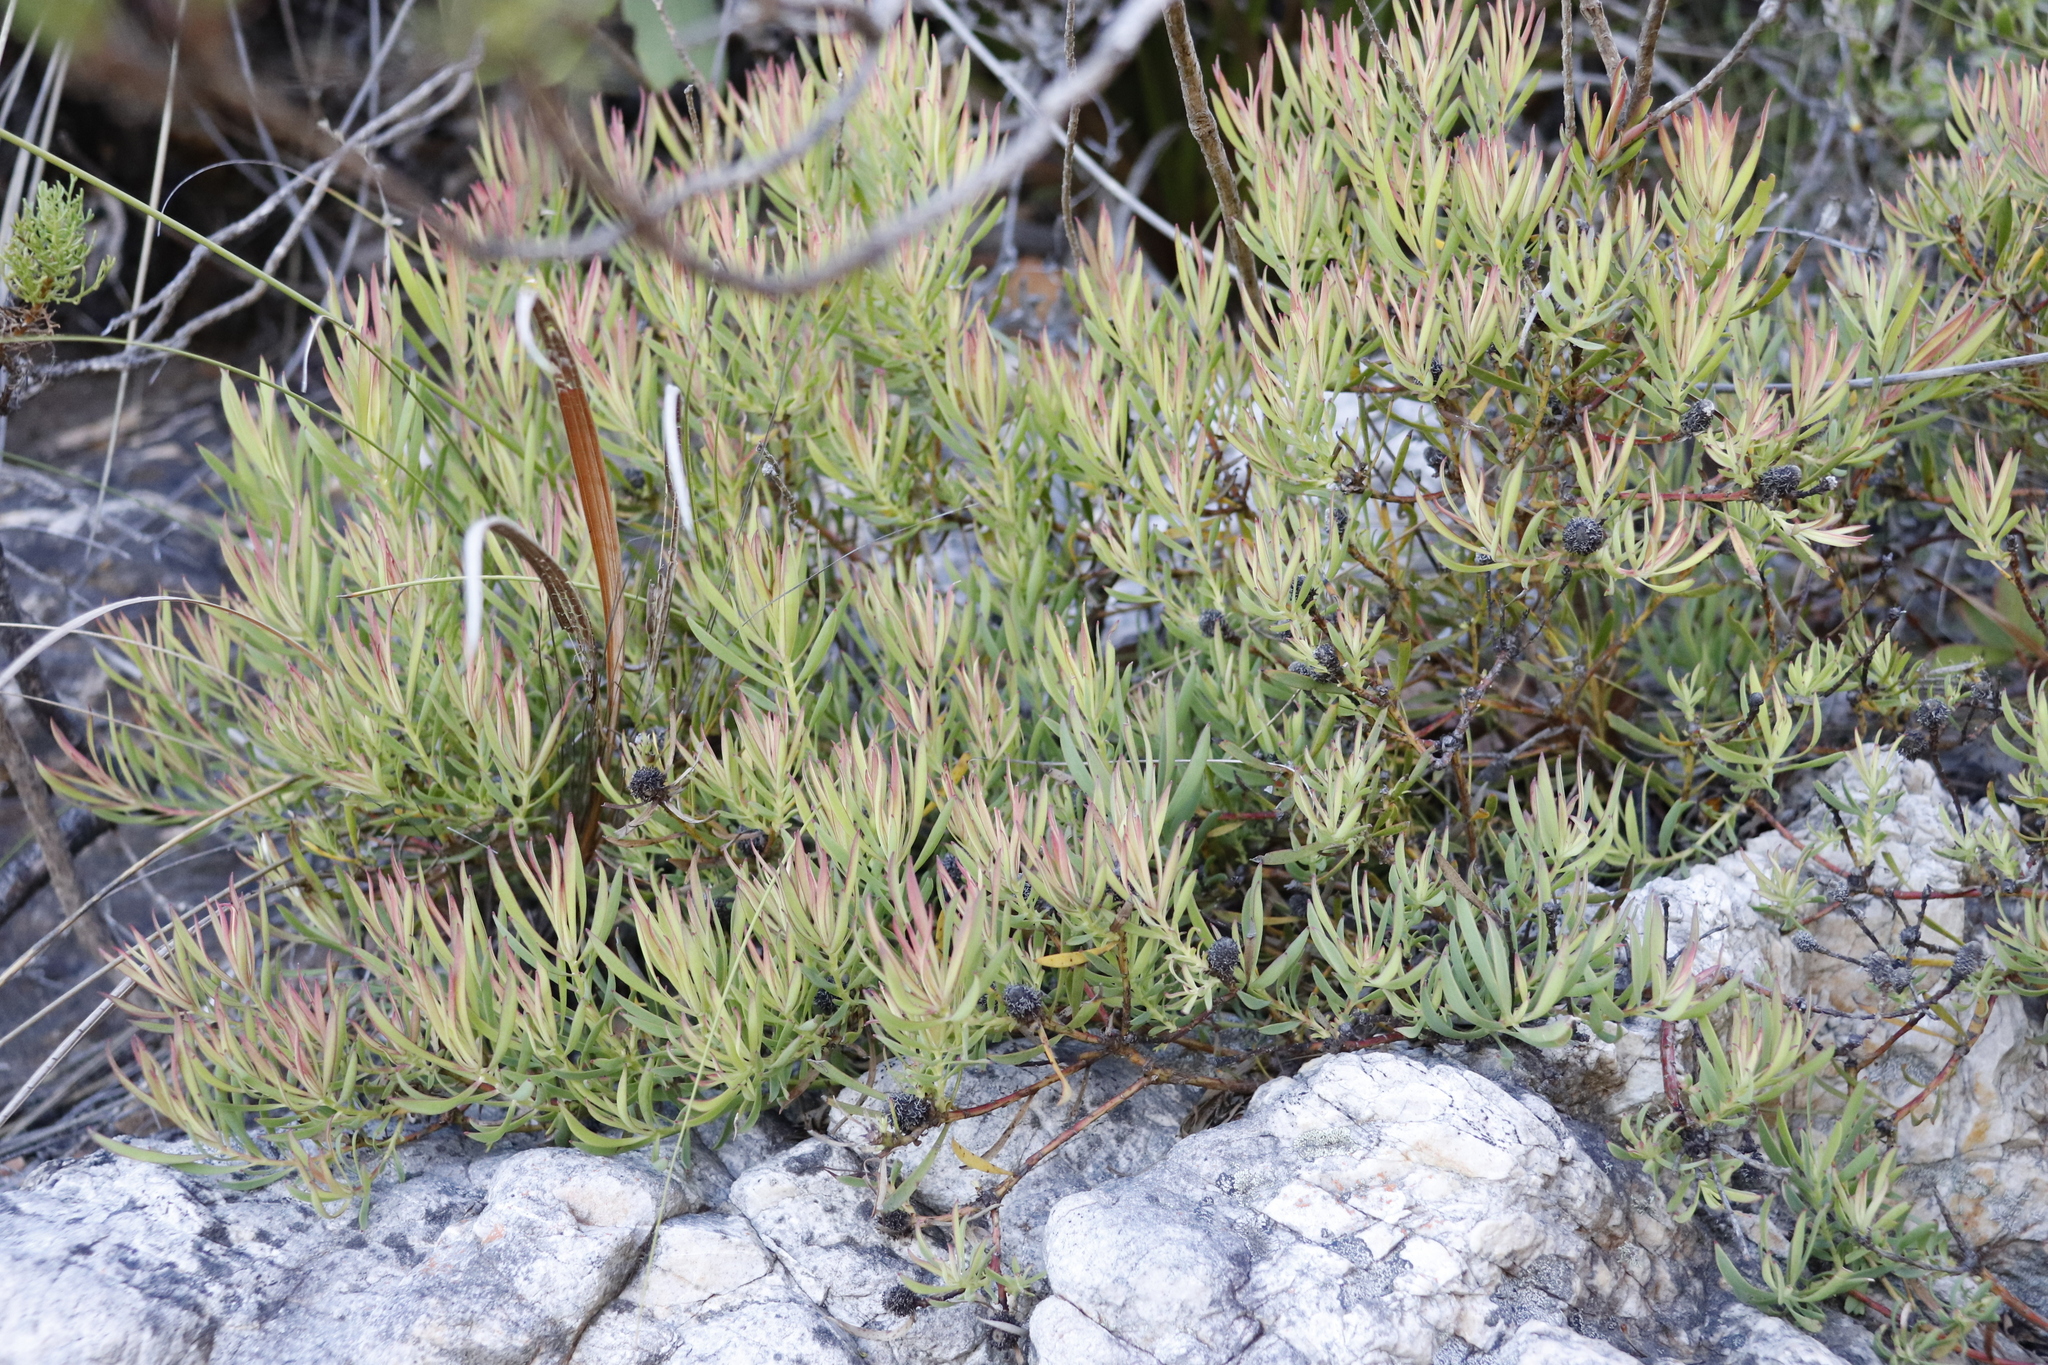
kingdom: Plantae
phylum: Tracheophyta
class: Magnoliopsida
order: Proteales
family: Proteaceae
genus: Leucadendron
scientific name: Leucadendron salignum
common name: Common sunshine conebush
